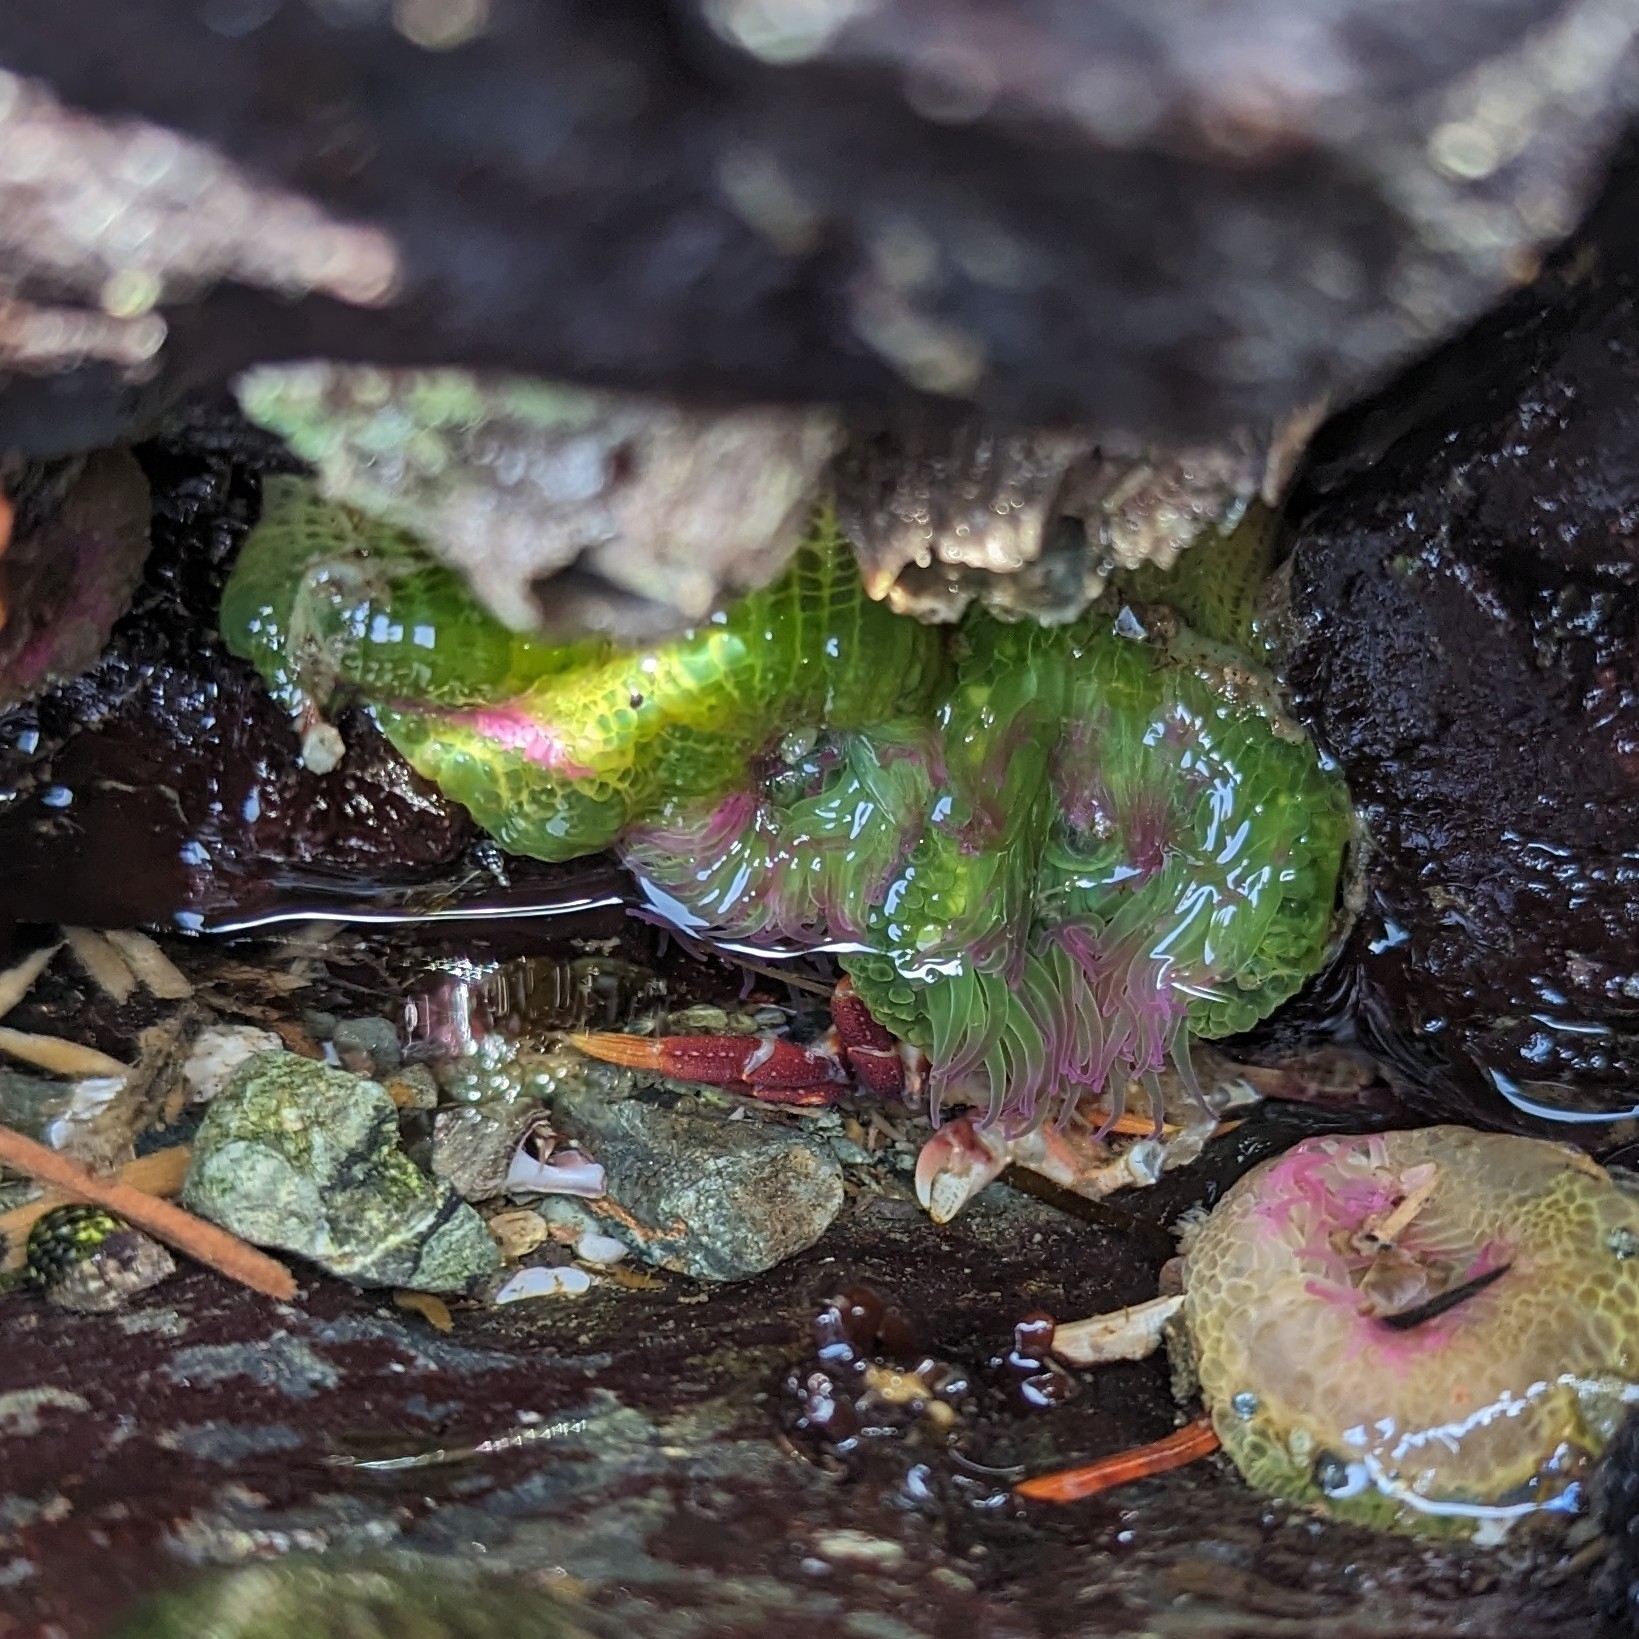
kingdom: Animalia
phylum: Cnidaria
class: Anthozoa
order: Actiniaria
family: Actiniidae
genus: Anthopleura
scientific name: Anthopleura elegantissima
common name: Clonal anemone
